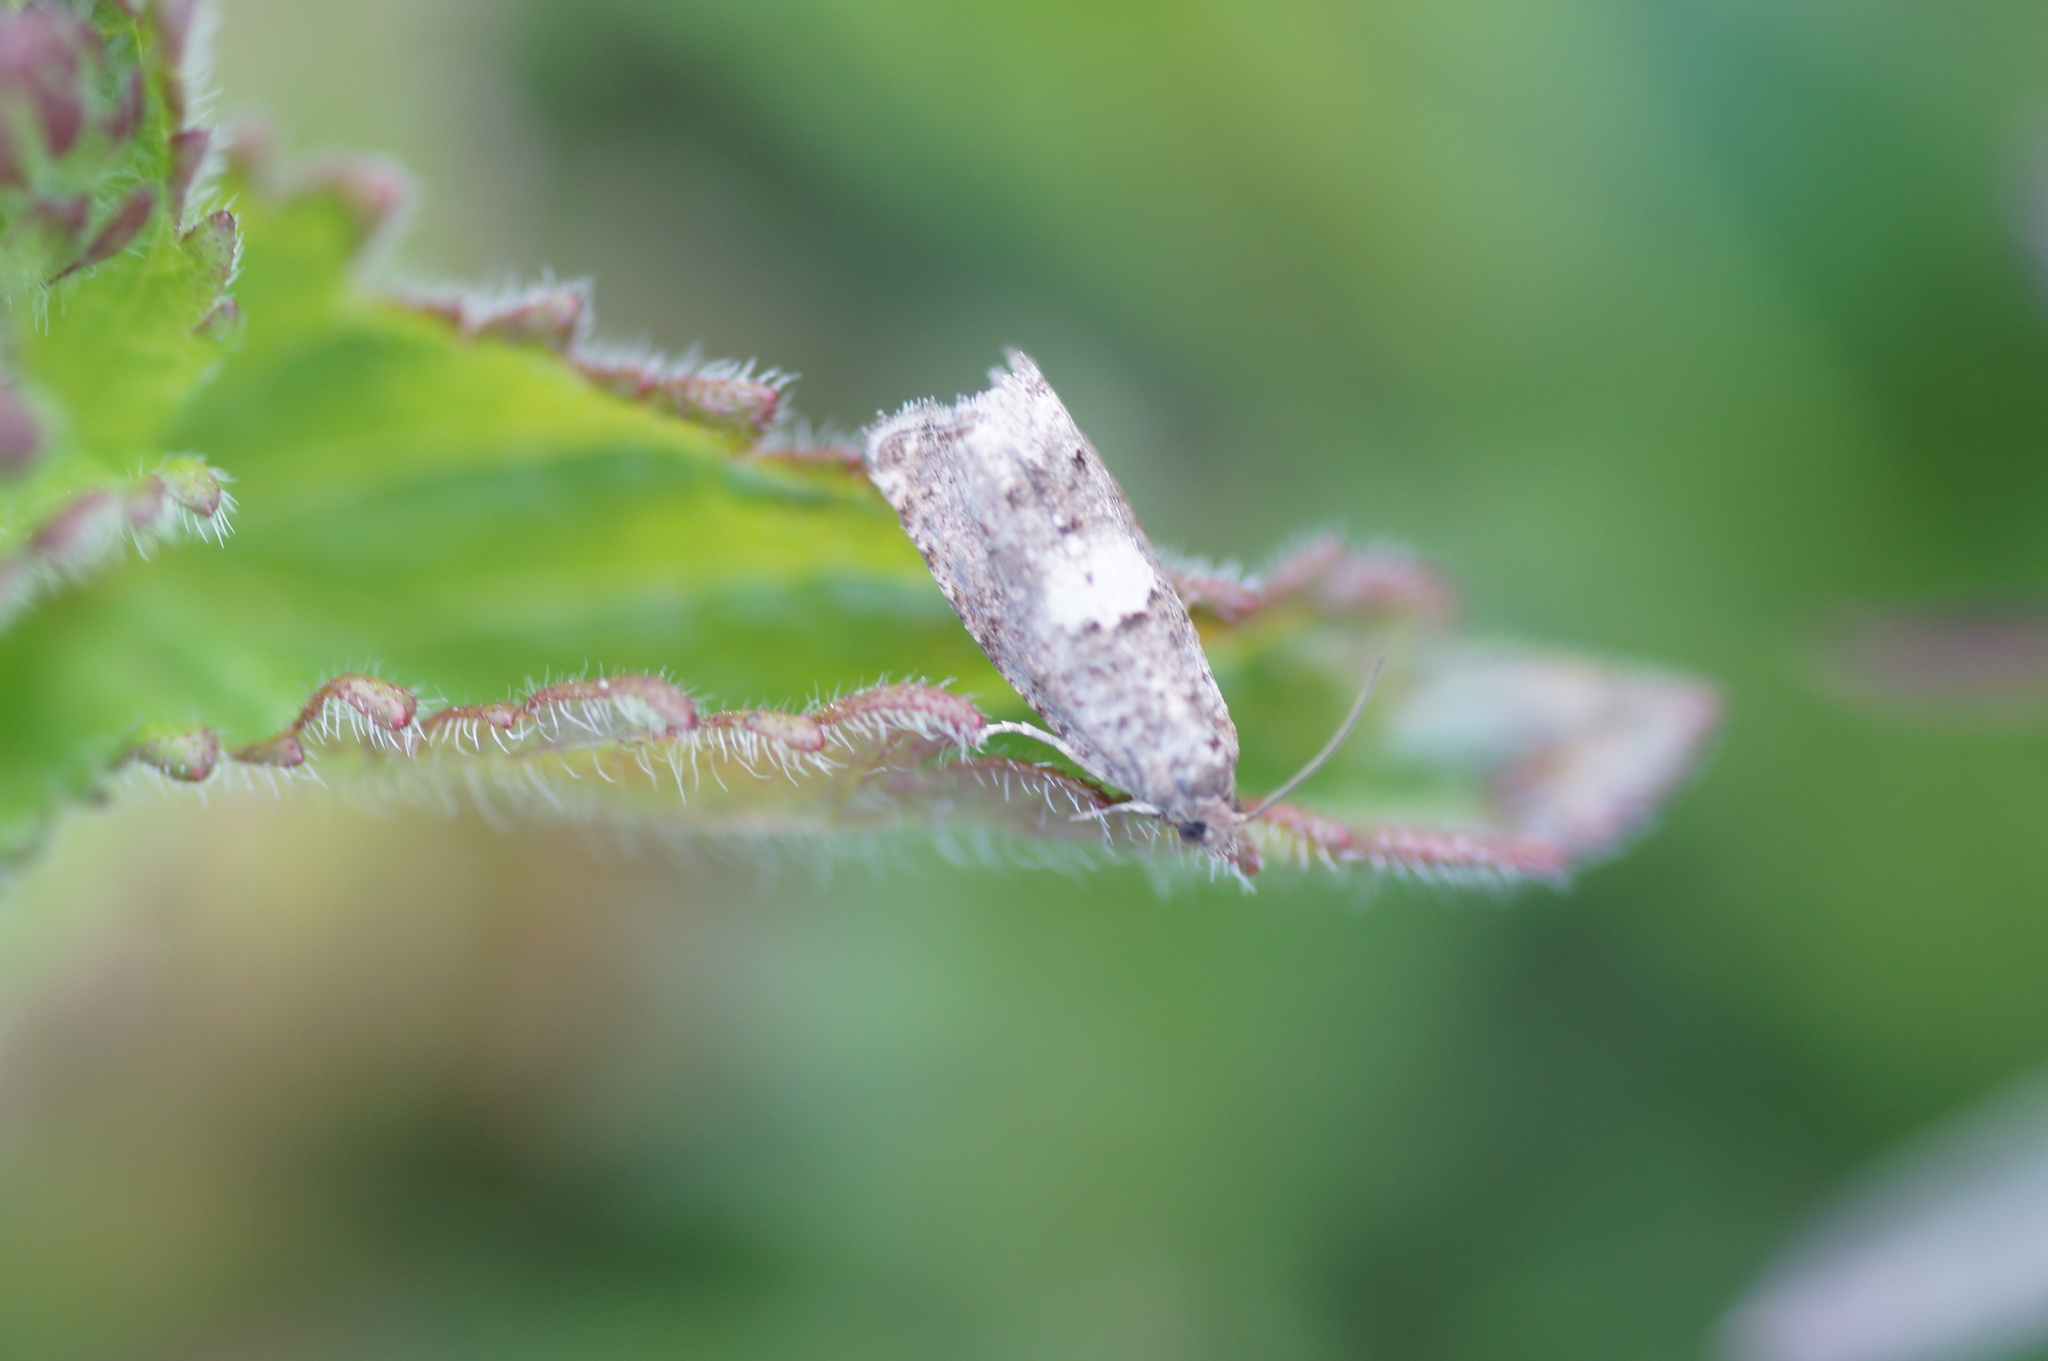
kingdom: Animalia
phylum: Arthropoda
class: Insecta
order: Lepidoptera
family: Tortricidae
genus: Epiblema
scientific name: Epiblema
